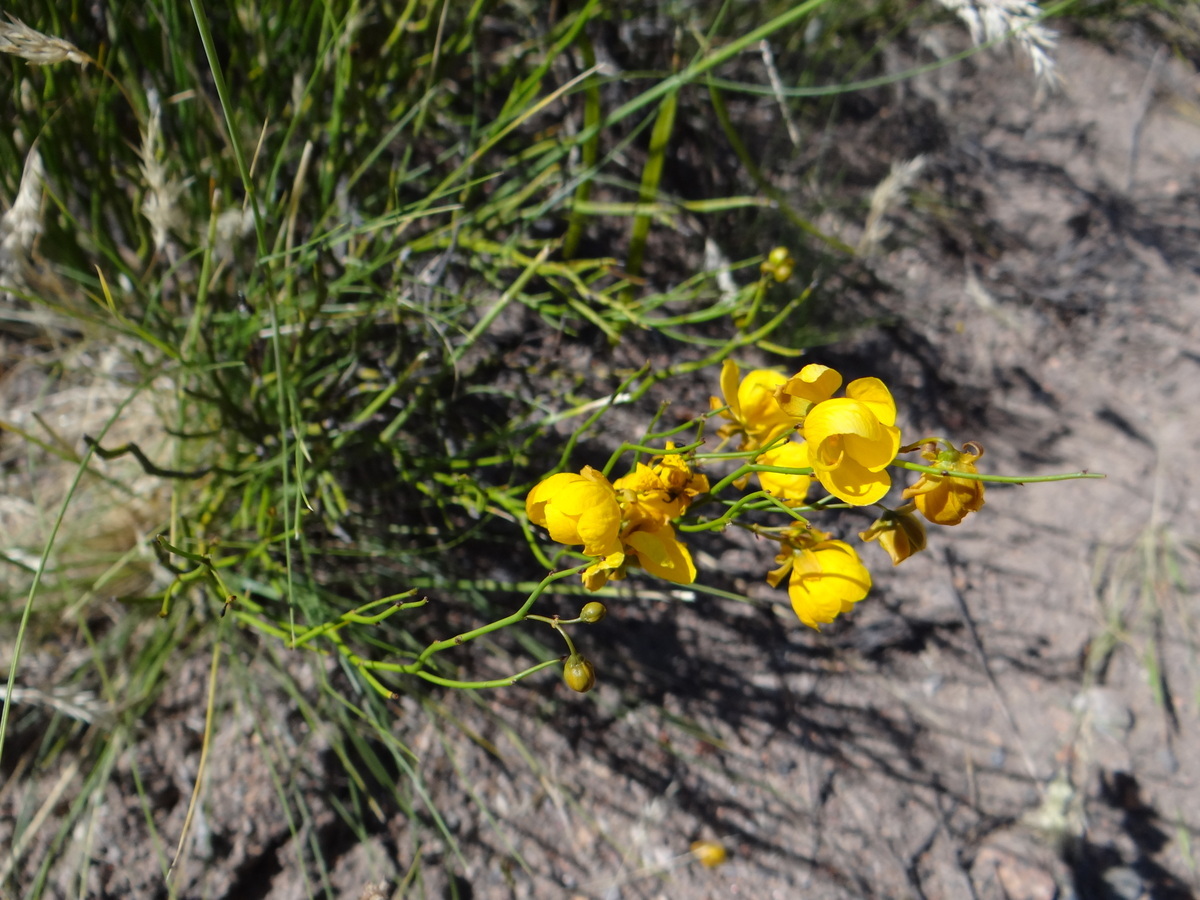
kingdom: Plantae
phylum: Tracheophyta
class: Magnoliopsida
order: Fabales
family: Fabaceae
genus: Senna
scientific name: Senna aphylla
